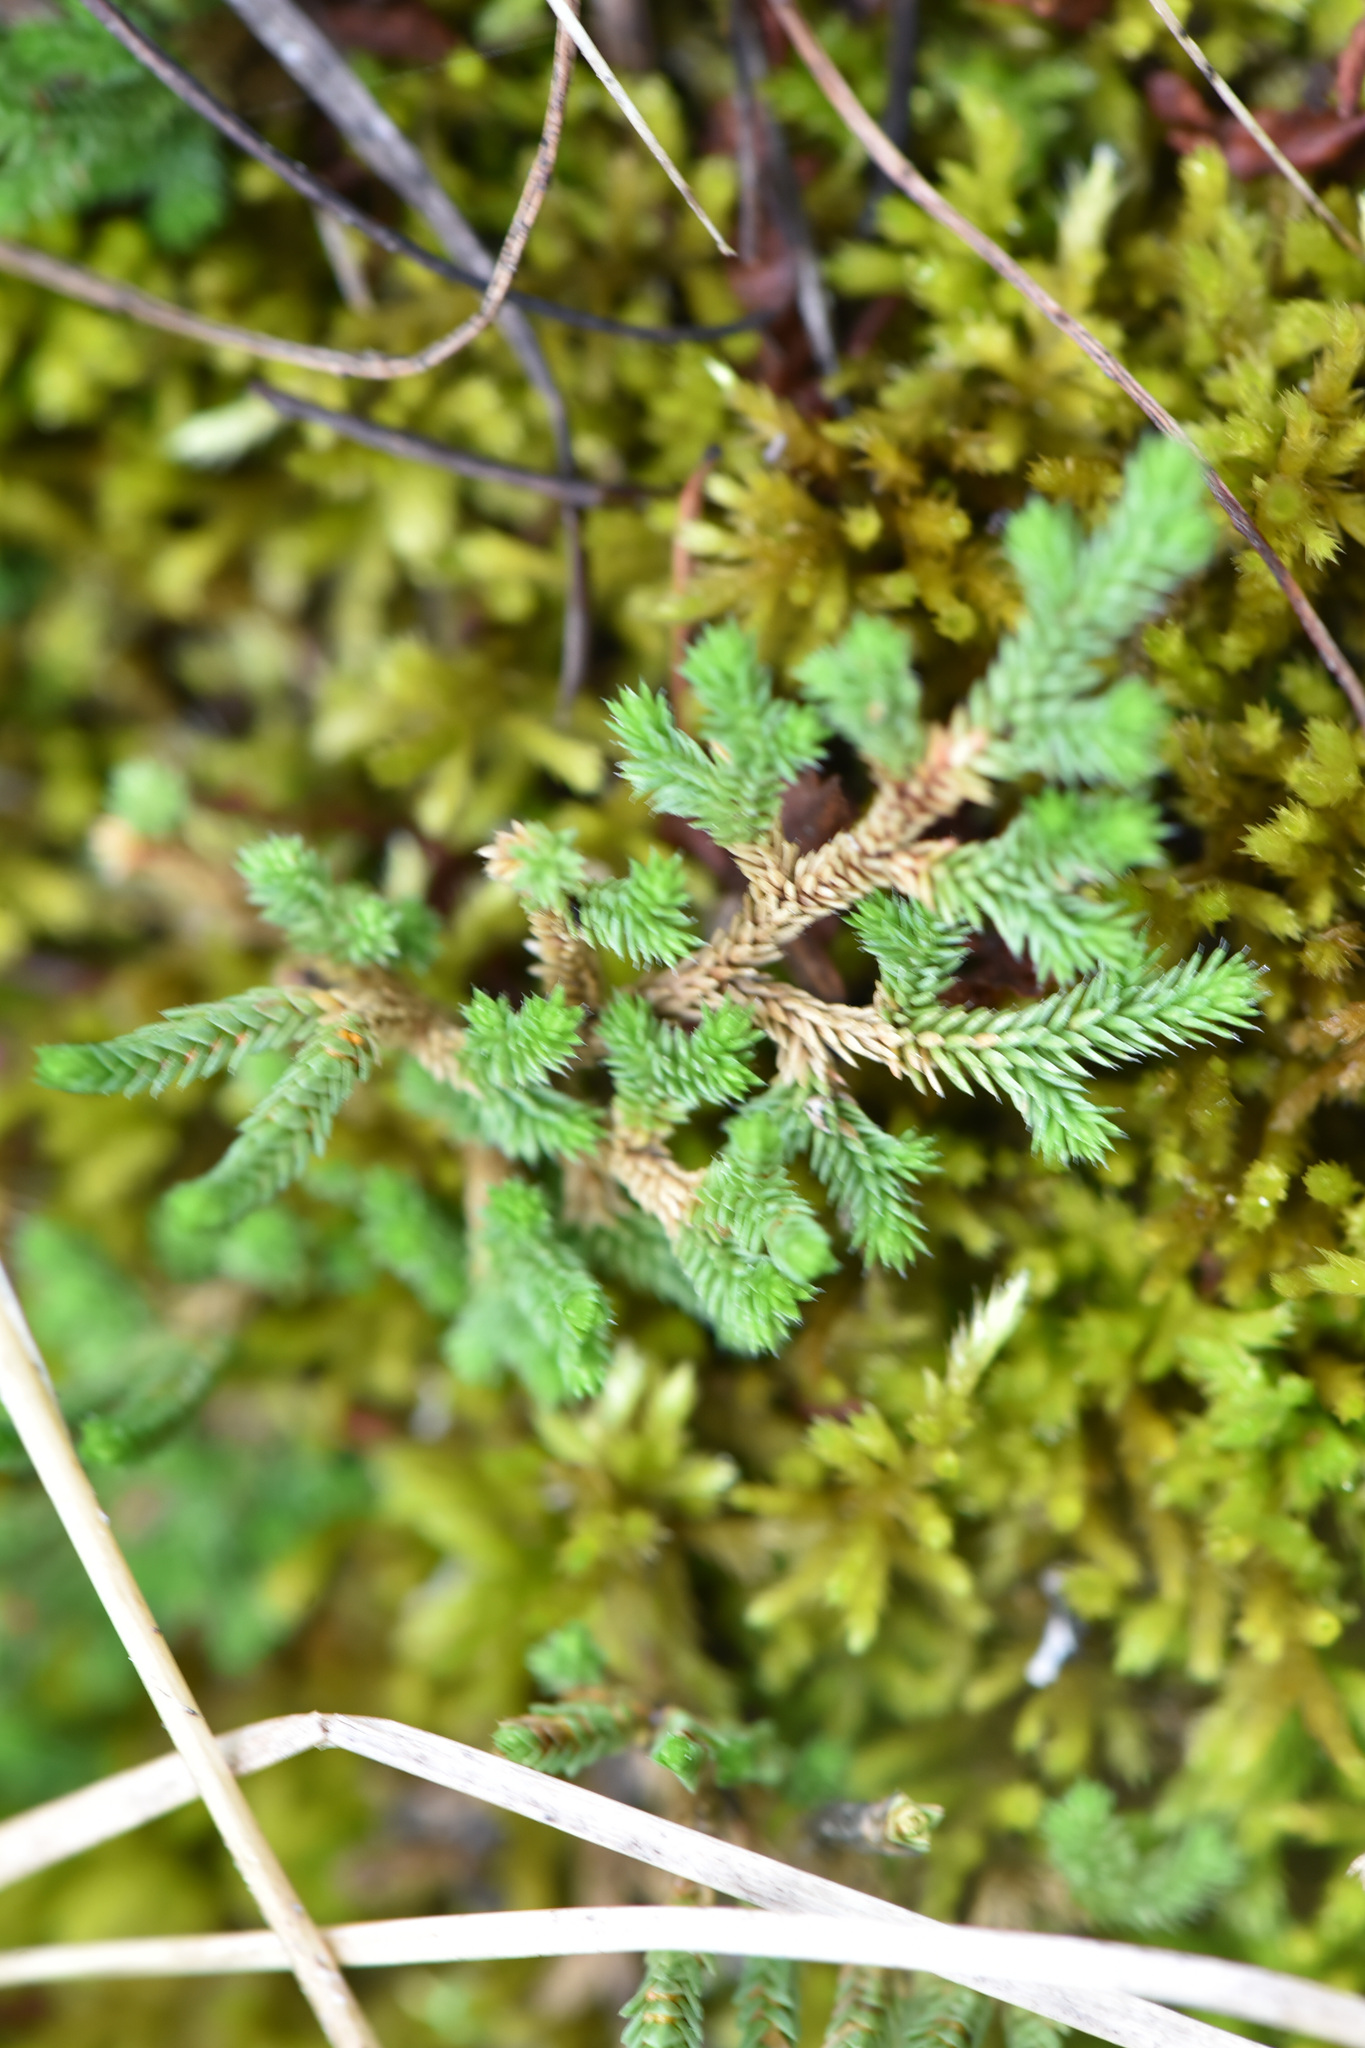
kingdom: Plantae
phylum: Tracheophyta
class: Lycopodiopsida
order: Selaginellales
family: Selaginellaceae
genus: Selaginella
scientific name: Selaginella wallacei
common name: Wallace's selaginella
